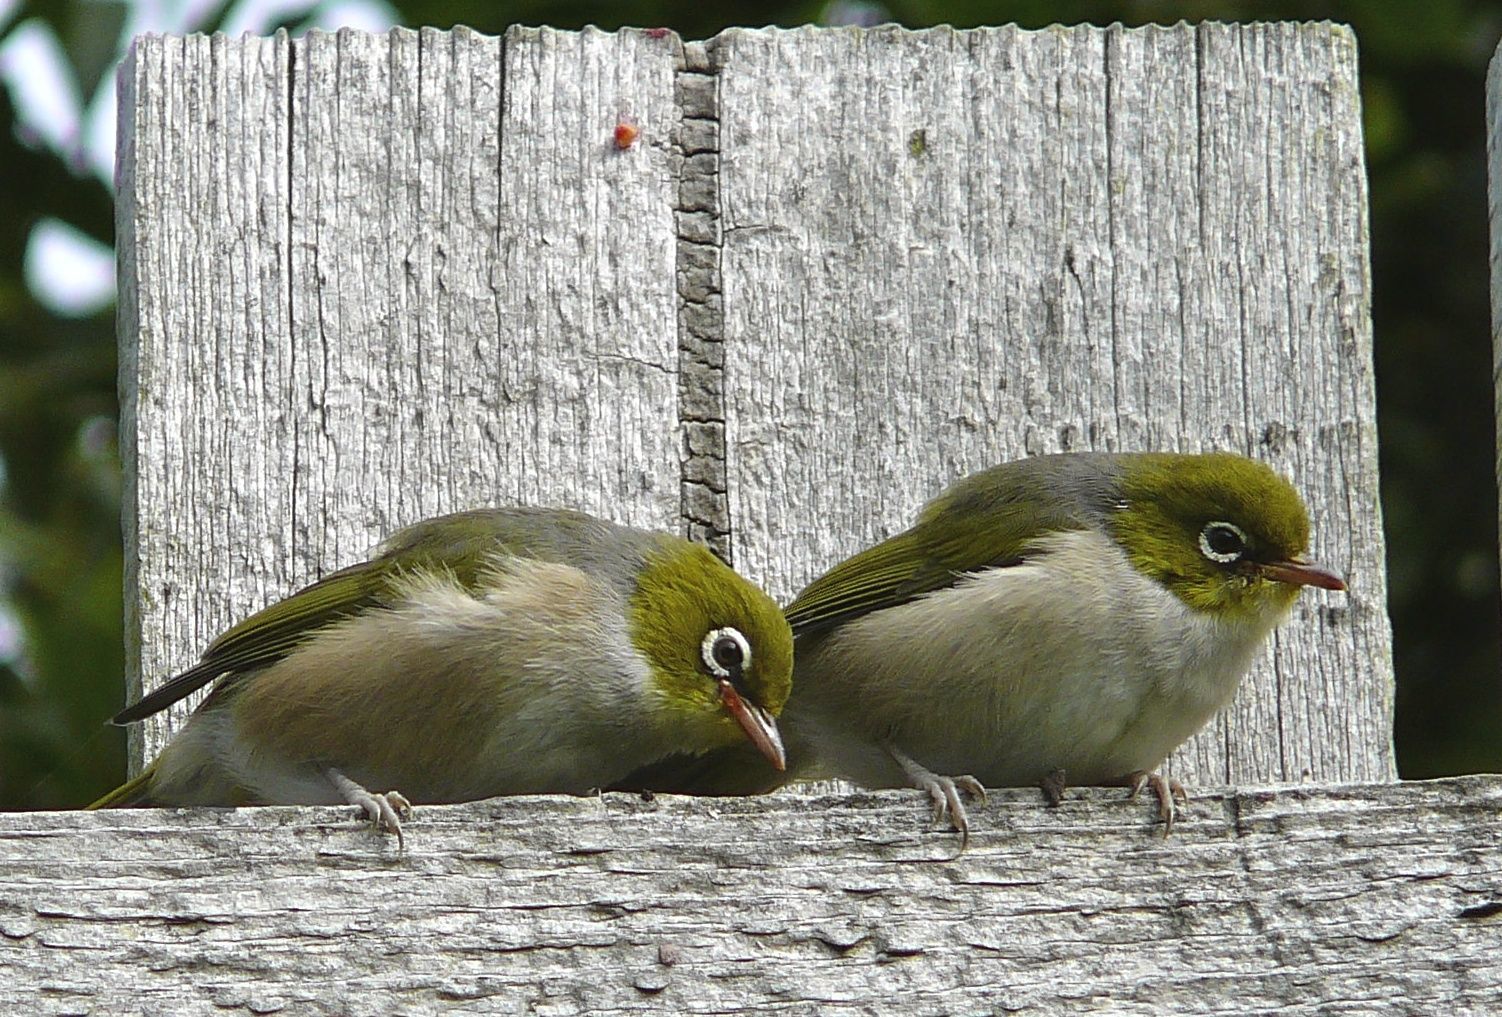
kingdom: Animalia
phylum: Chordata
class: Aves
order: Passeriformes
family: Zosteropidae
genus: Zosterops
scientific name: Zosterops lateralis
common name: Silvereye
